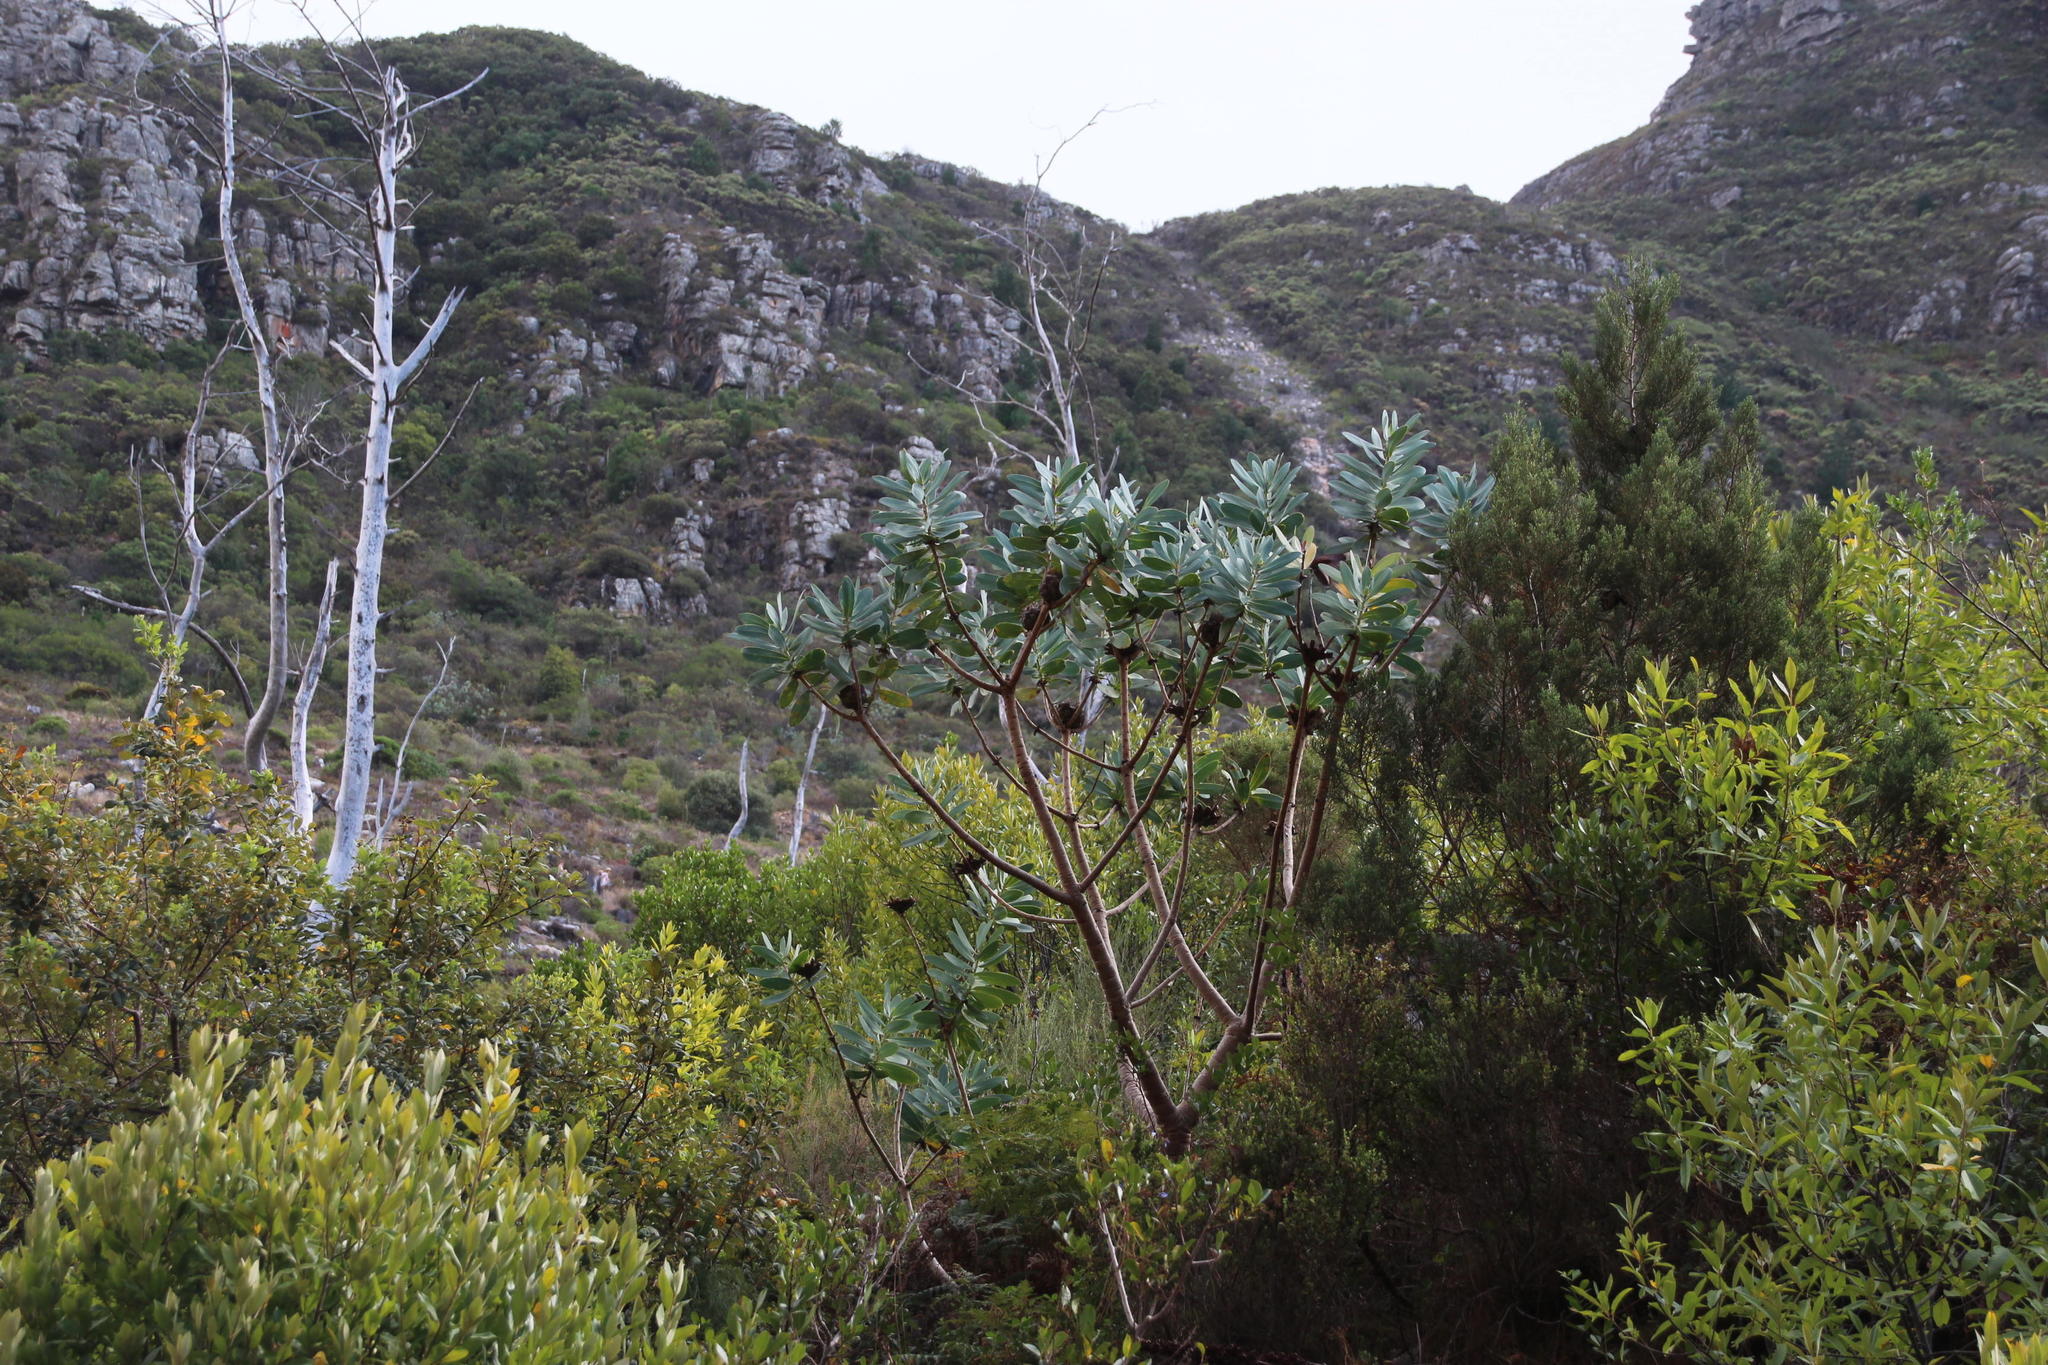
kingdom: Plantae
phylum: Tracheophyta
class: Magnoliopsida
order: Proteales
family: Proteaceae
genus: Protea
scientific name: Protea nitida
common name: Tree protea
